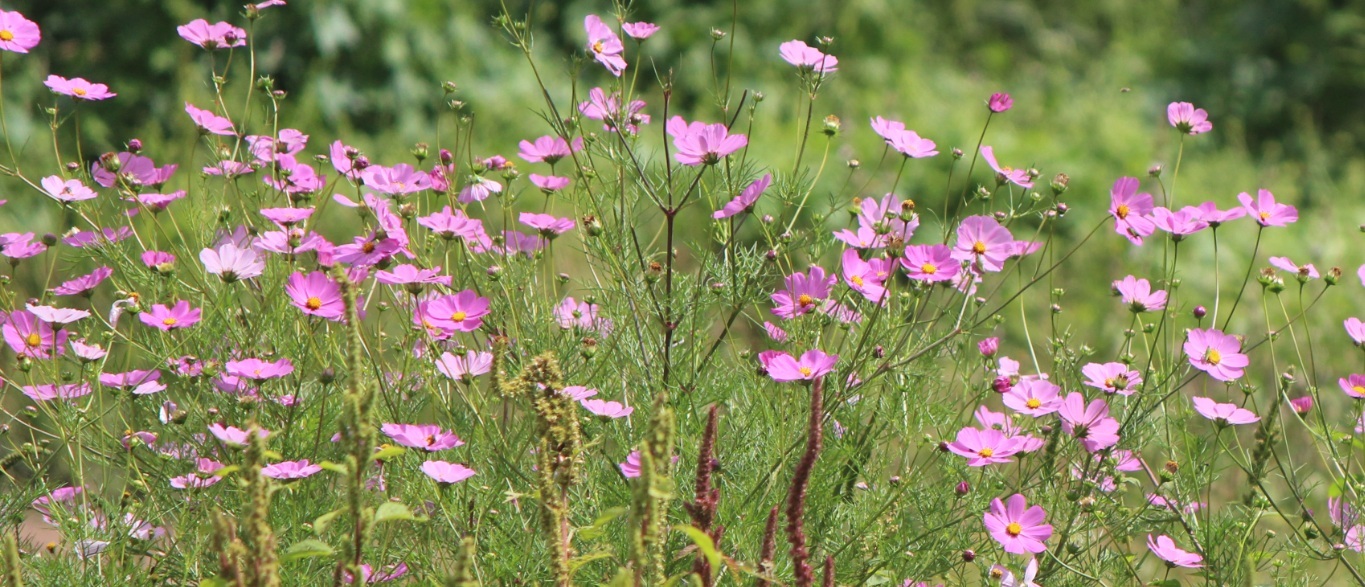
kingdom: Plantae
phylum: Tracheophyta
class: Magnoliopsida
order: Asterales
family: Asteraceae
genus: Cosmos
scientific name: Cosmos bipinnatus
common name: Garden cosmos
